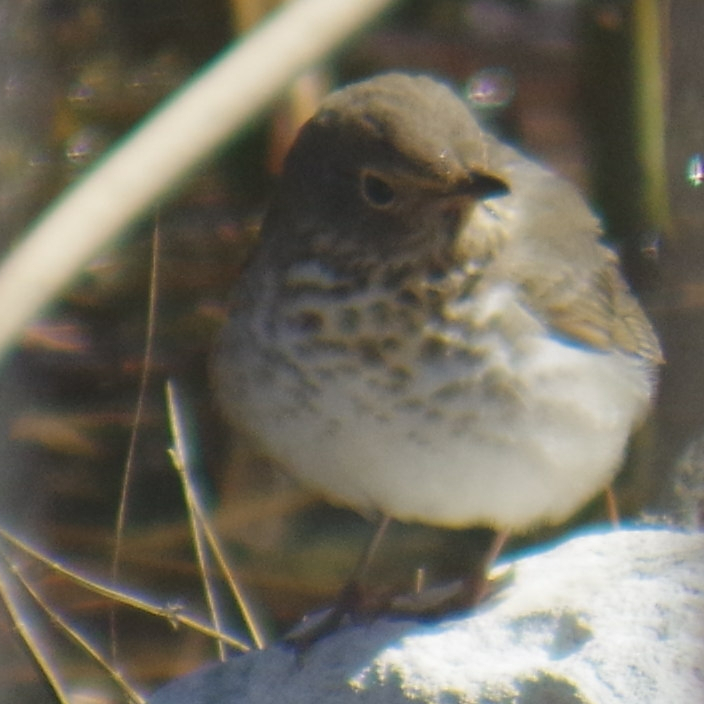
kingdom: Animalia
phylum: Chordata
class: Aves
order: Passeriformes
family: Turdidae
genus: Catharus
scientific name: Catharus ustulatus
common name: Swainson's thrush
